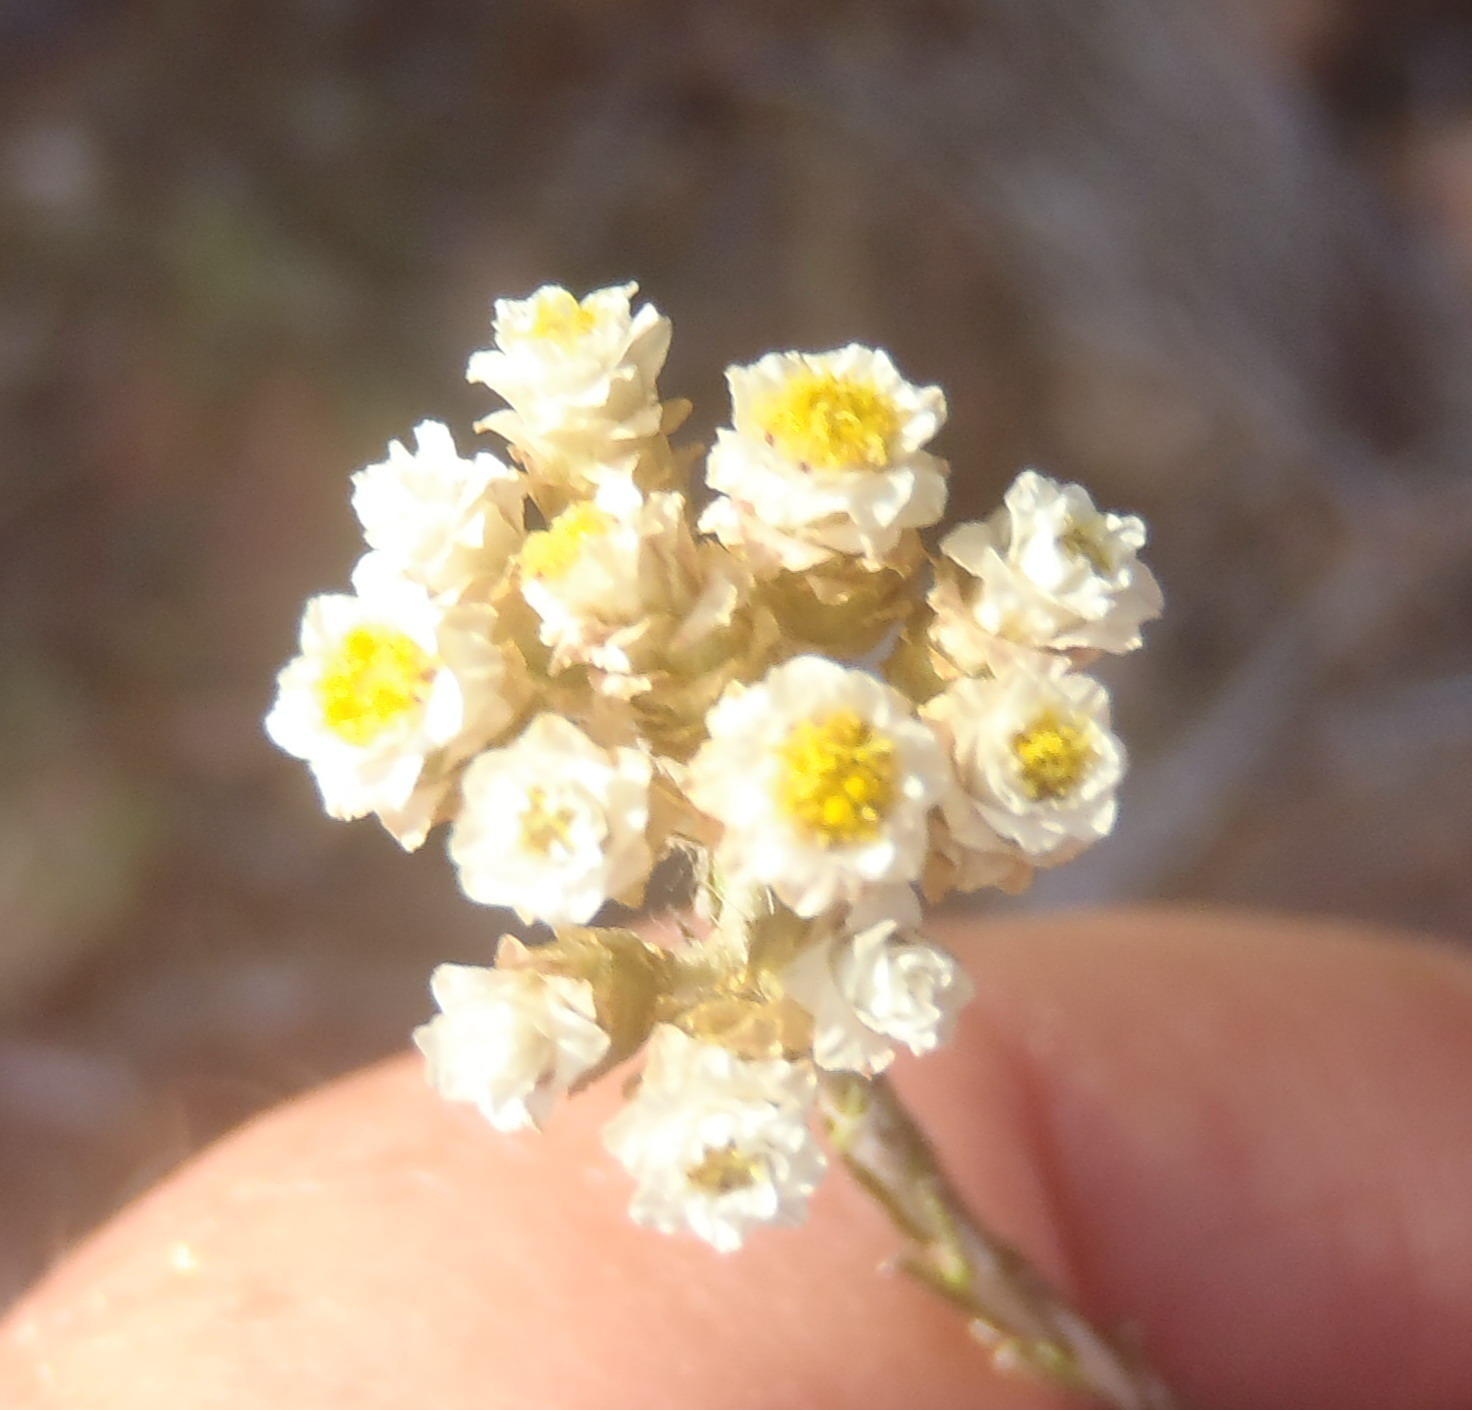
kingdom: Plantae
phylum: Tracheophyta
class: Magnoliopsida
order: Asterales
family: Asteraceae
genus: Helichrysum
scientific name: Helichrysum teretifolium
